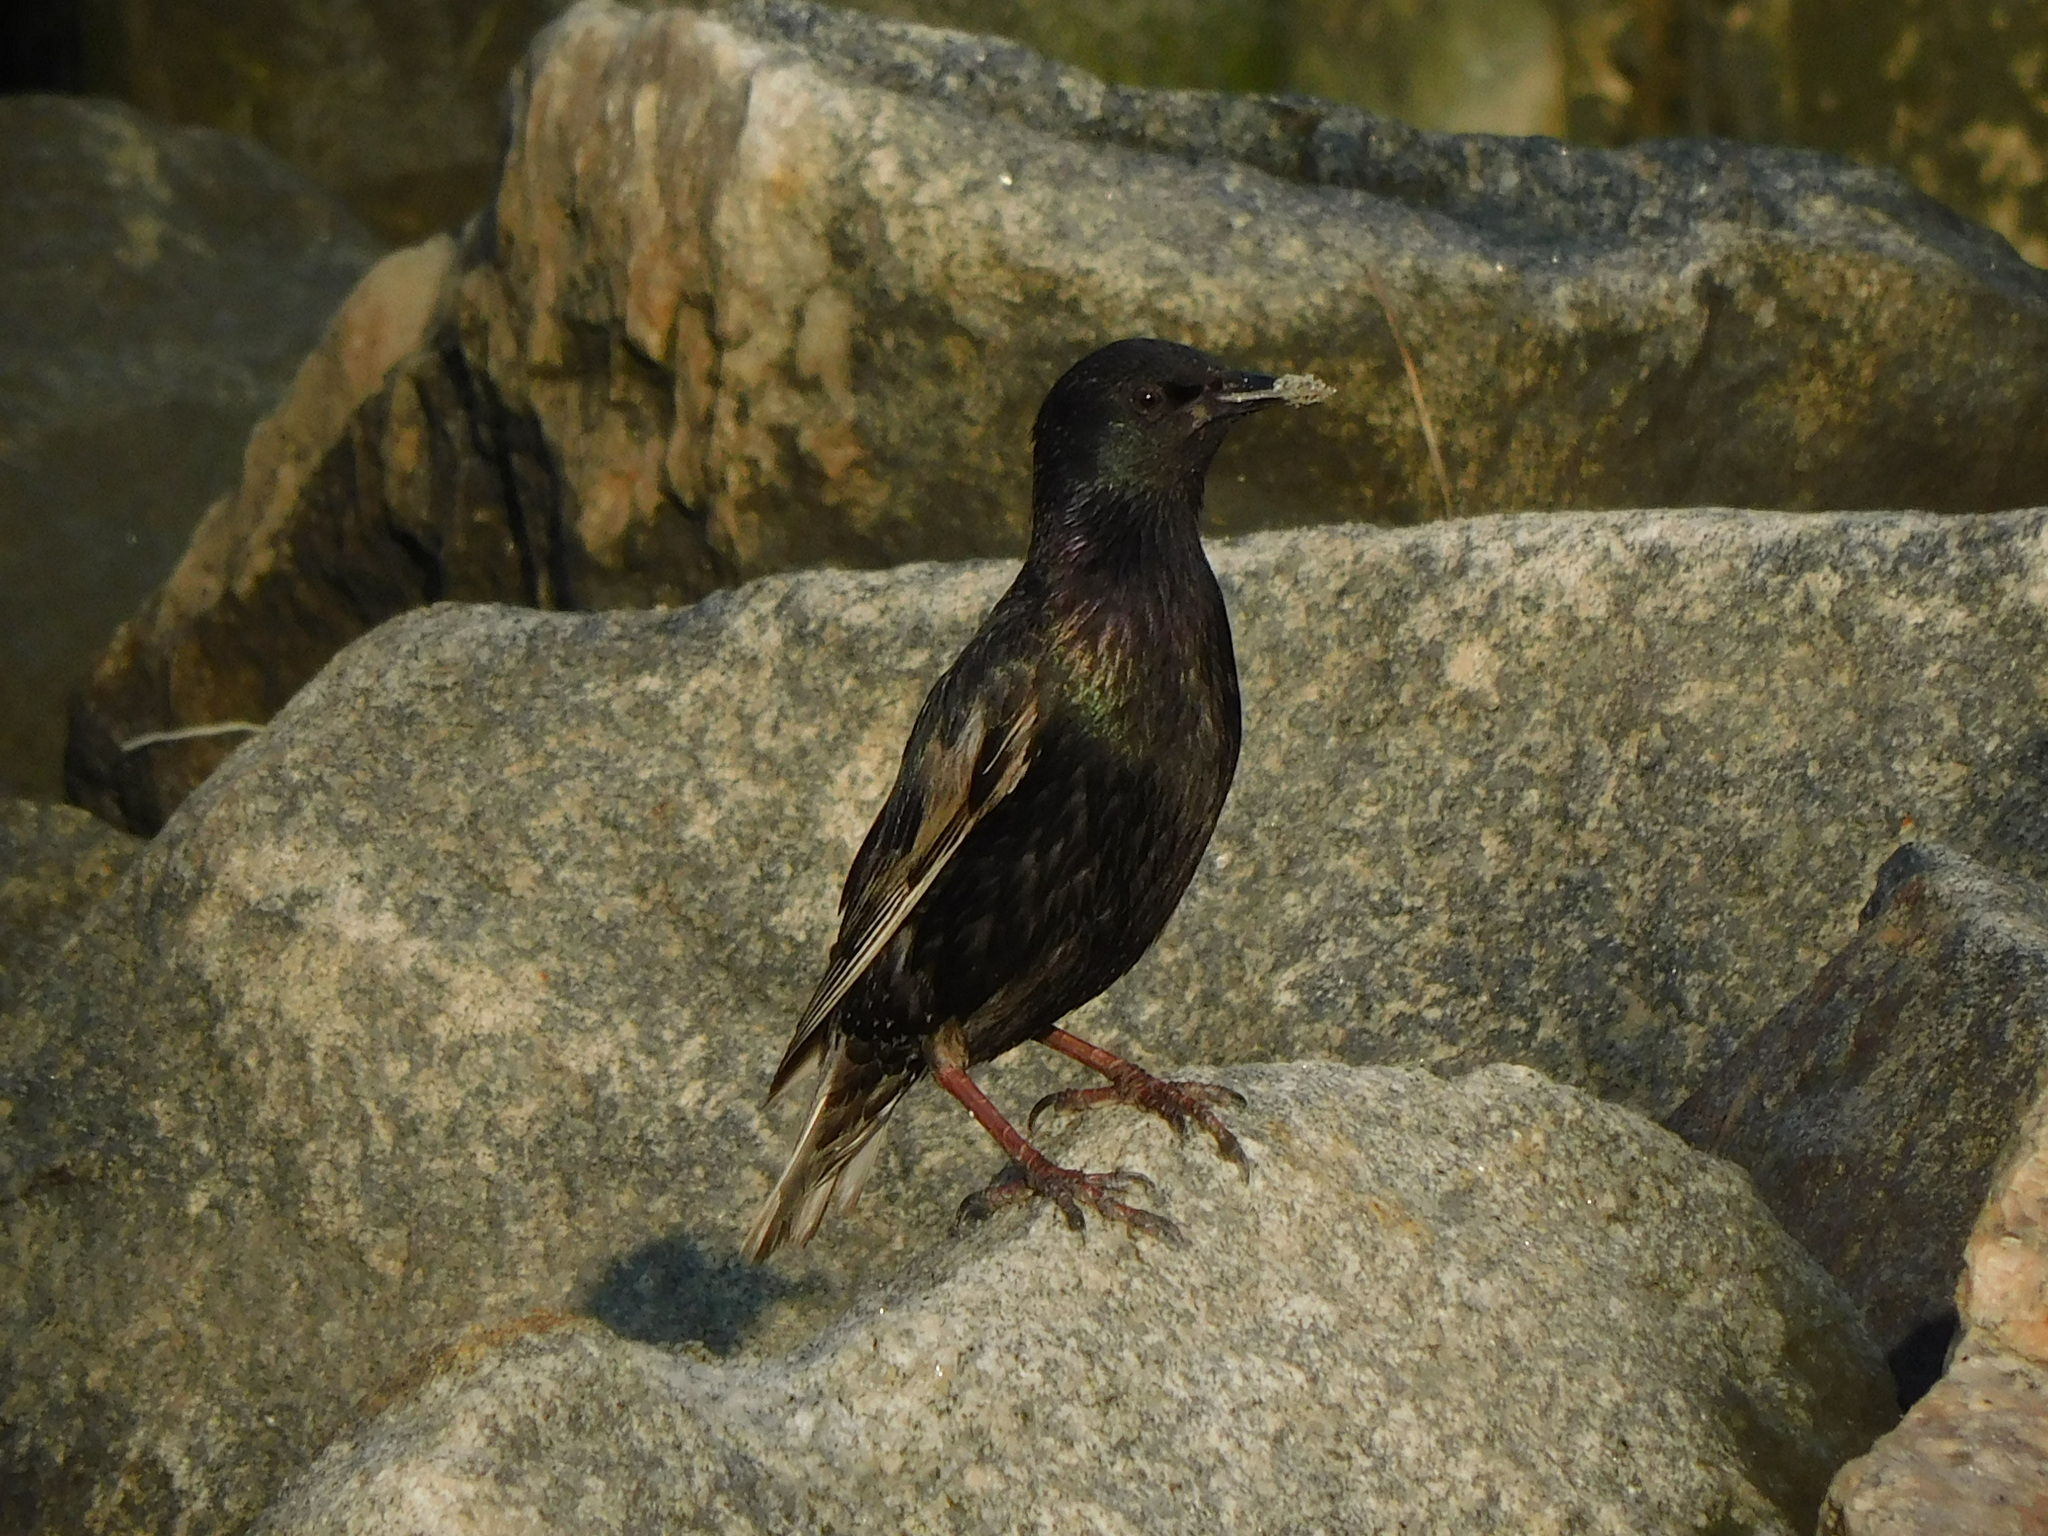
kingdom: Animalia
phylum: Chordata
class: Aves
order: Passeriformes
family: Sturnidae
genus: Sturnus
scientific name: Sturnus vulgaris
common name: Common starling
